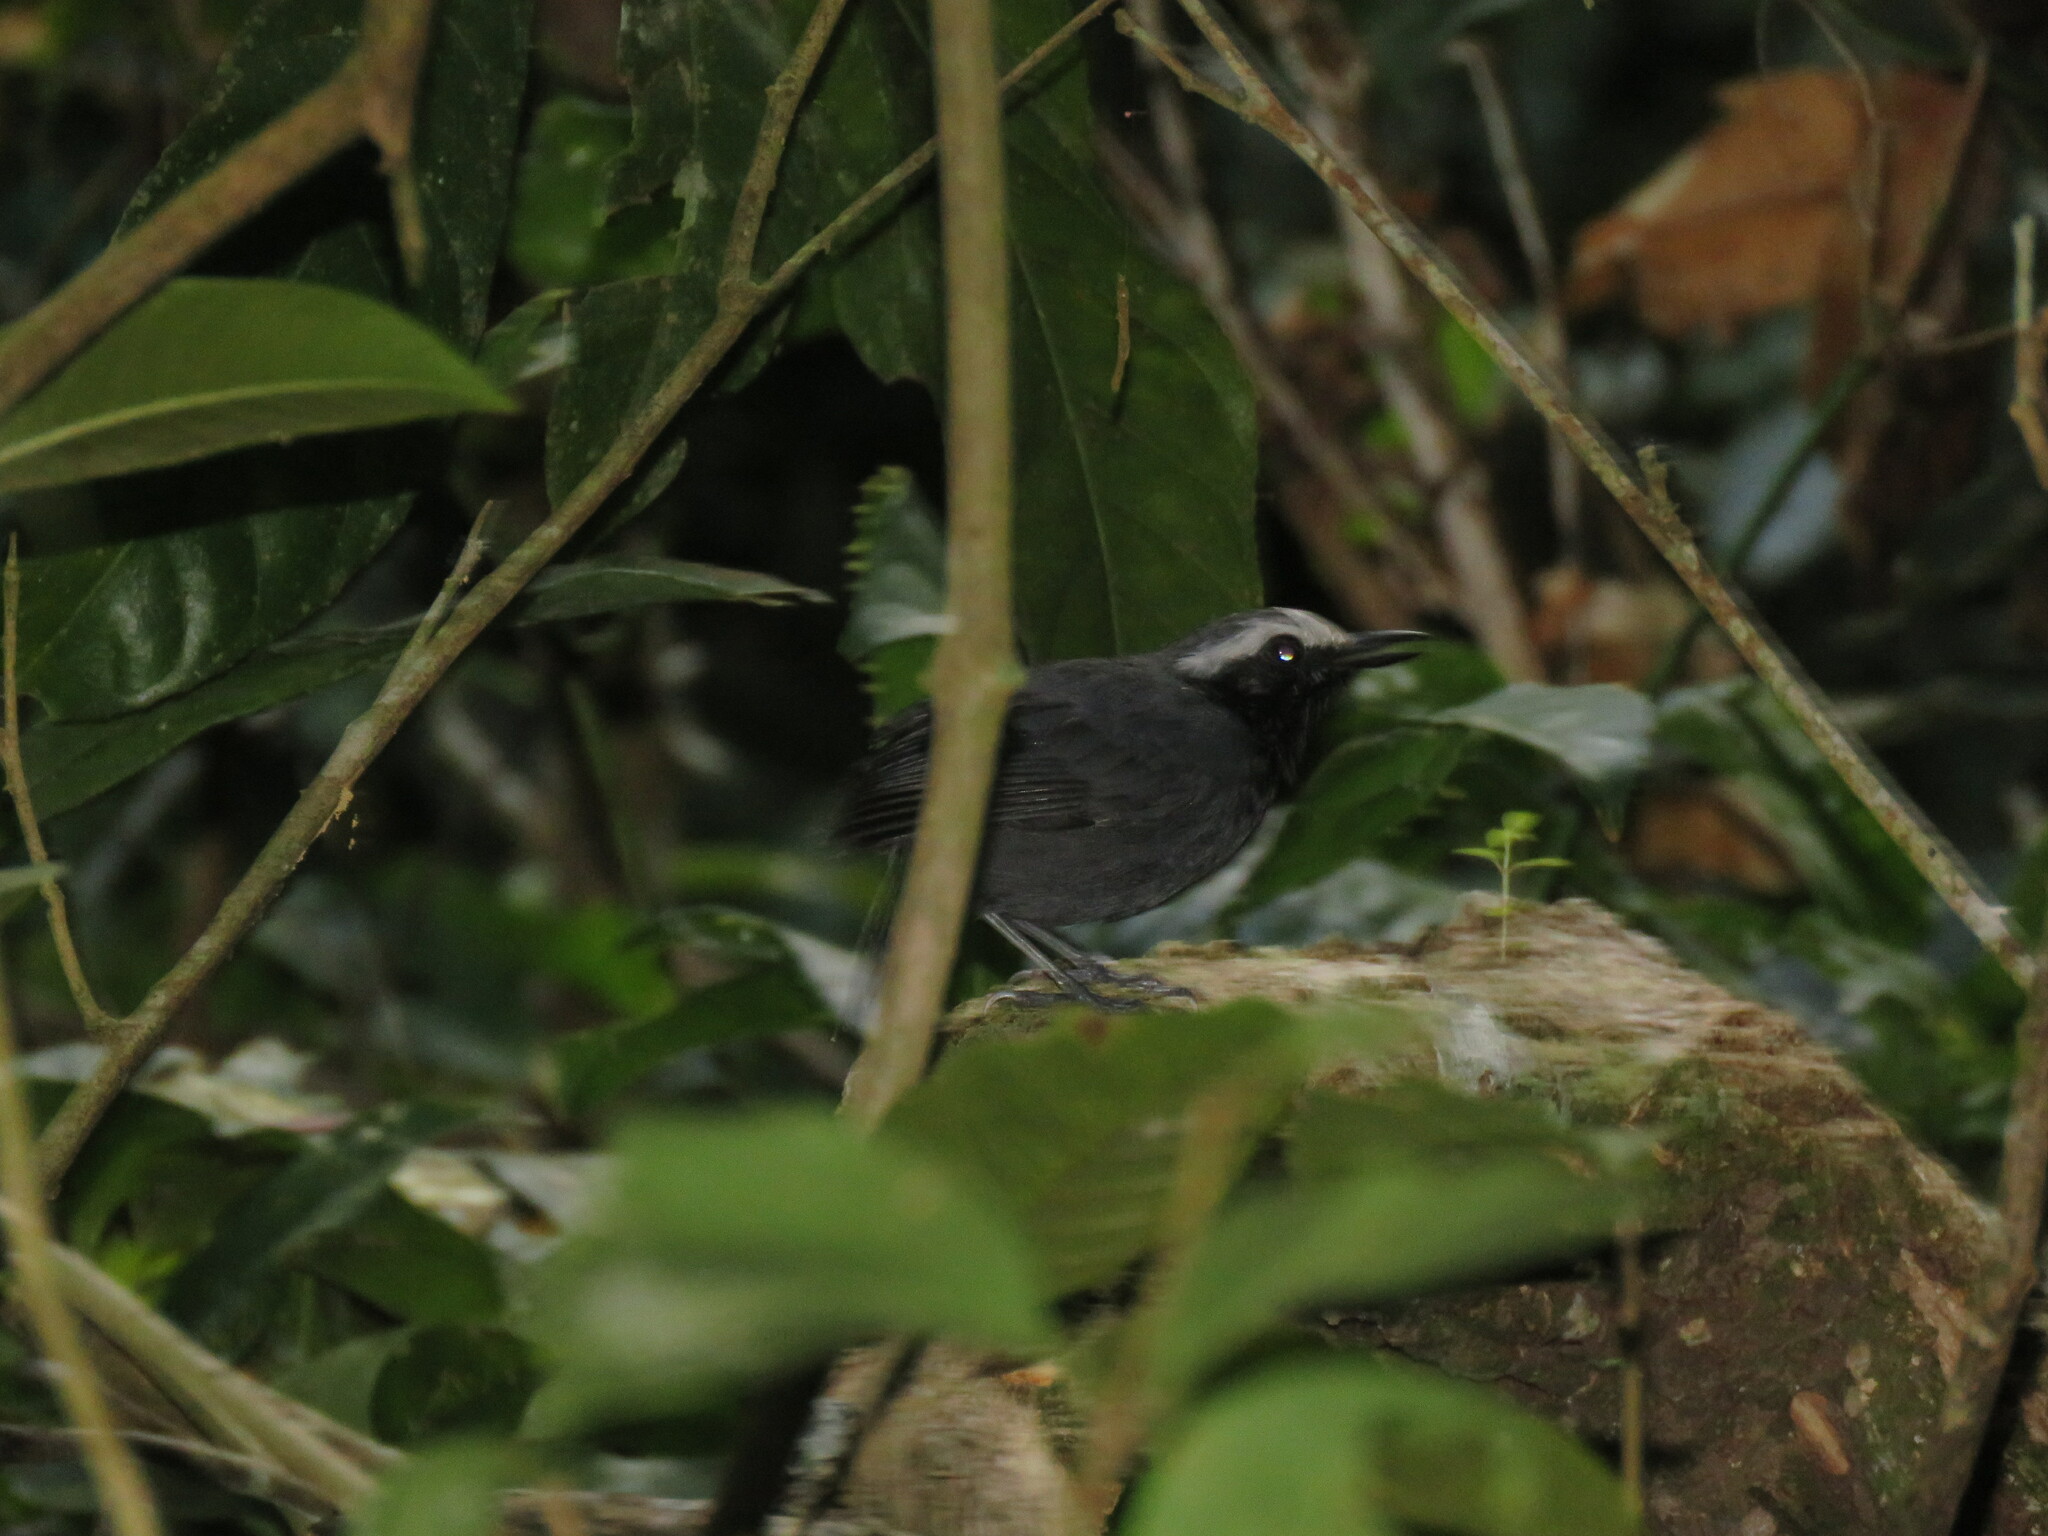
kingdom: Animalia
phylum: Chordata
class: Aves
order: Passeriformes
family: Thamnophilidae
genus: Myrmoborus
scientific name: Myrmoborus leucophrys
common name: White-browed antbird
